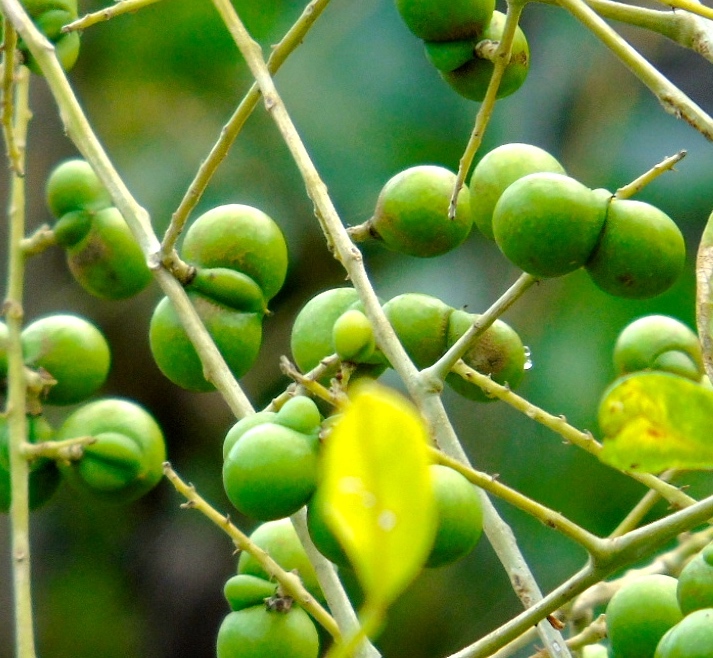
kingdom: Plantae
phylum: Tracheophyta
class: Magnoliopsida
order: Sapindales
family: Sapindaceae
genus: Sapindus
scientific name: Sapindus
